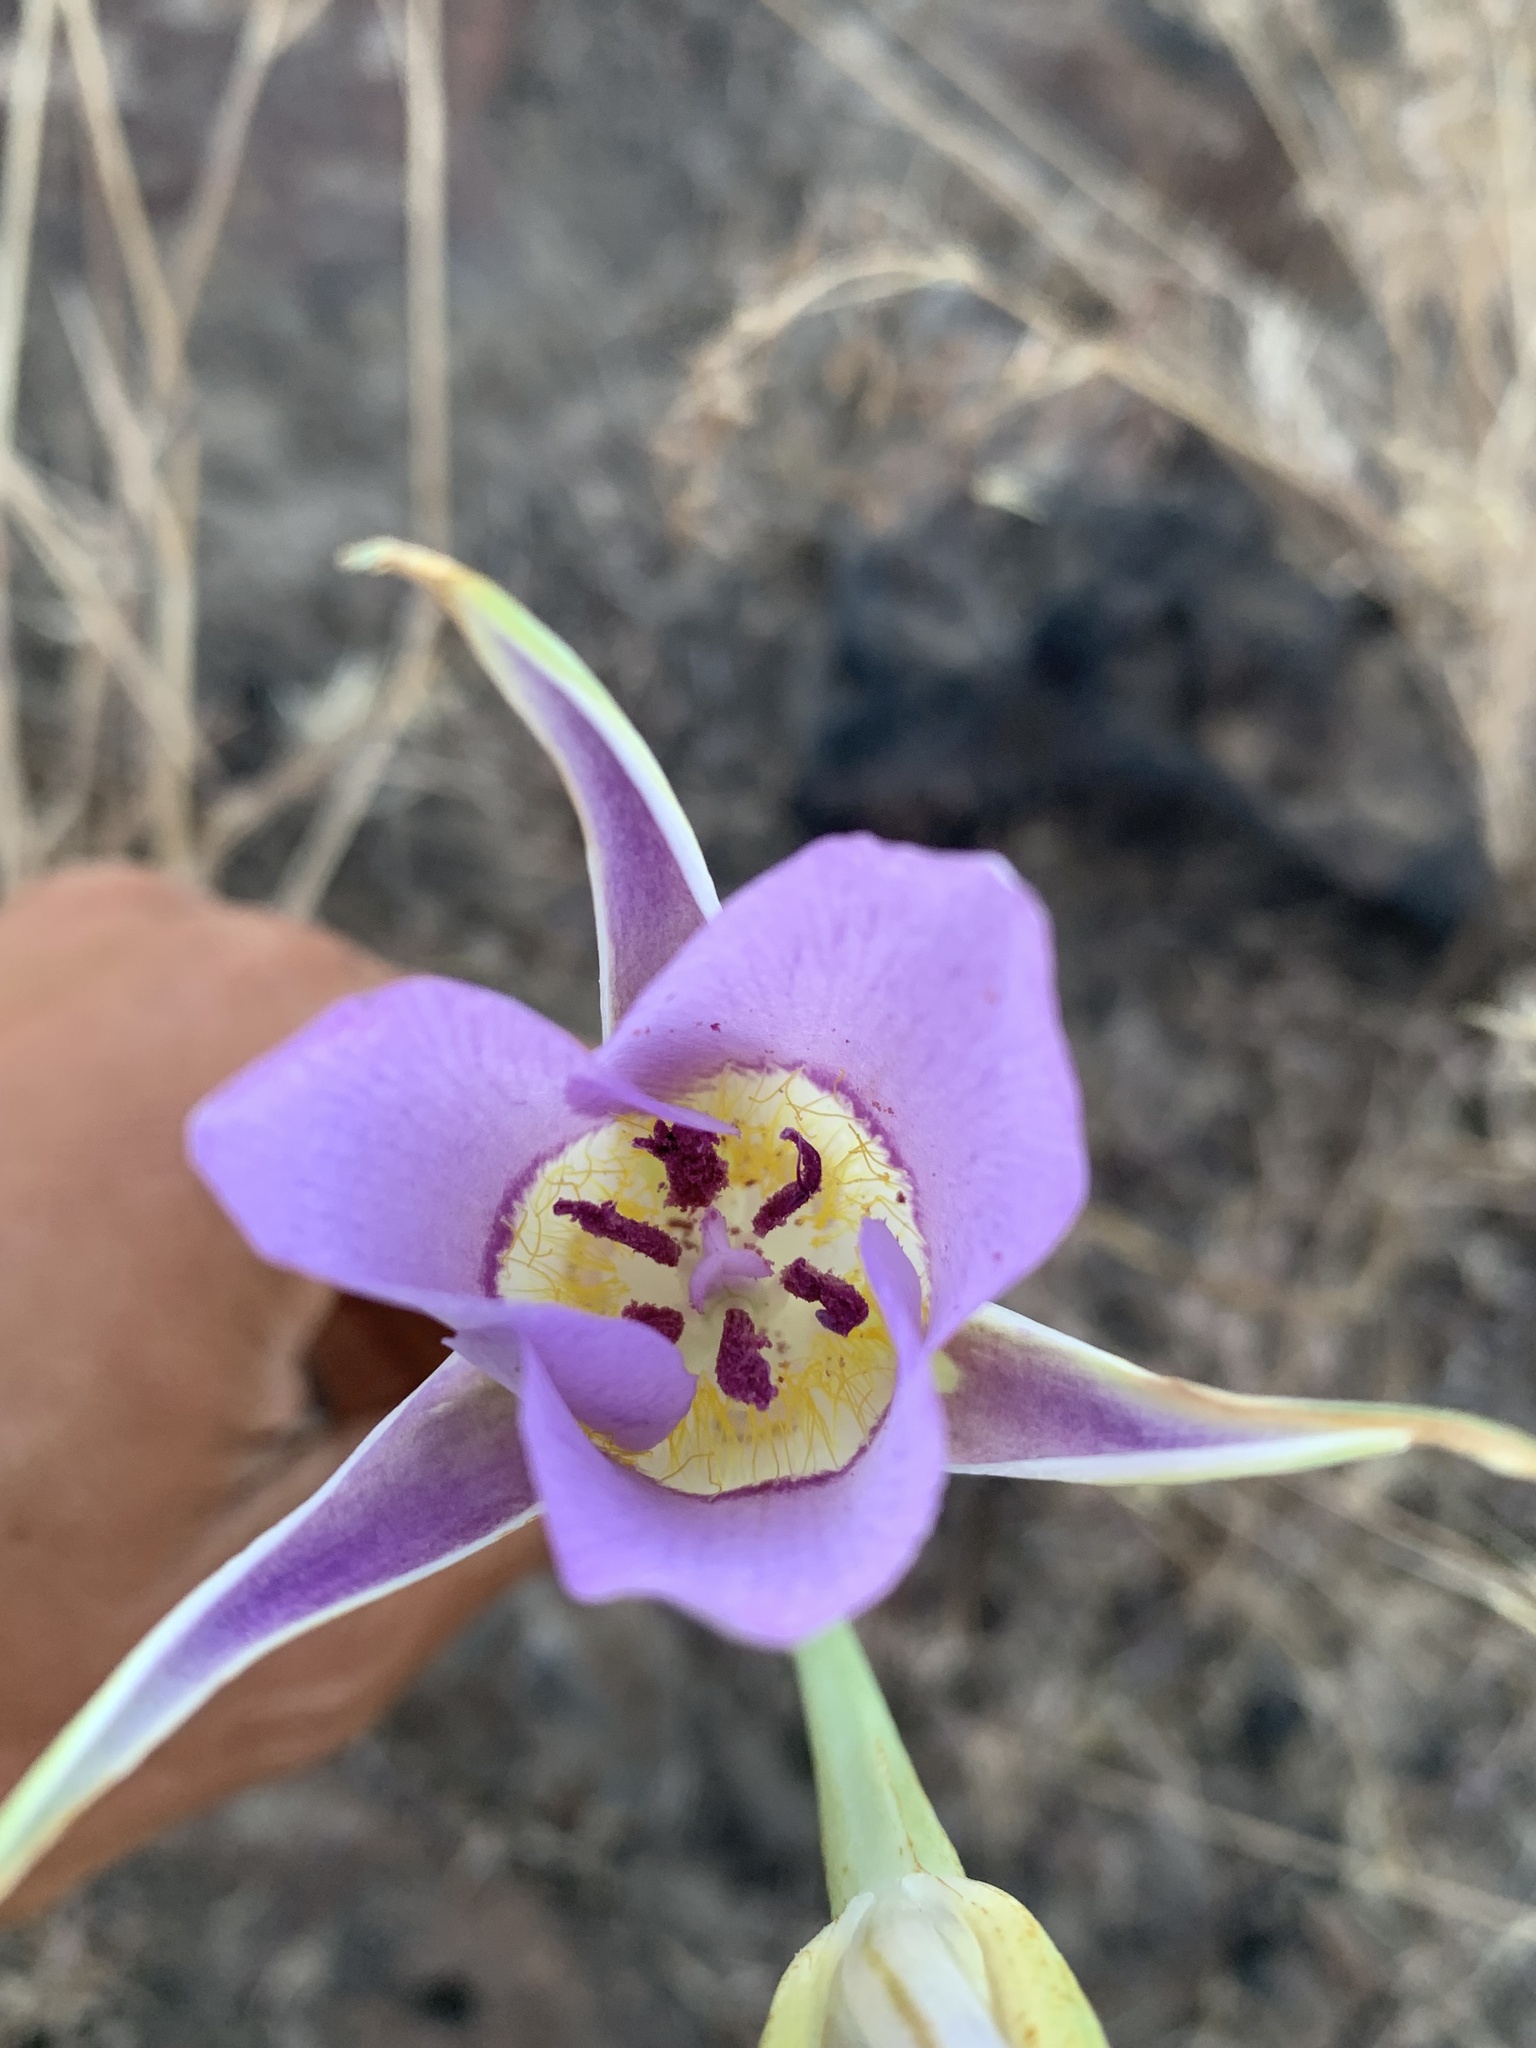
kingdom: Plantae
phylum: Tracheophyta
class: Liliopsida
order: Liliales
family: Liliaceae
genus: Calochortus
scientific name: Calochortus macrocarpus
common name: Green-band mariposa lily
